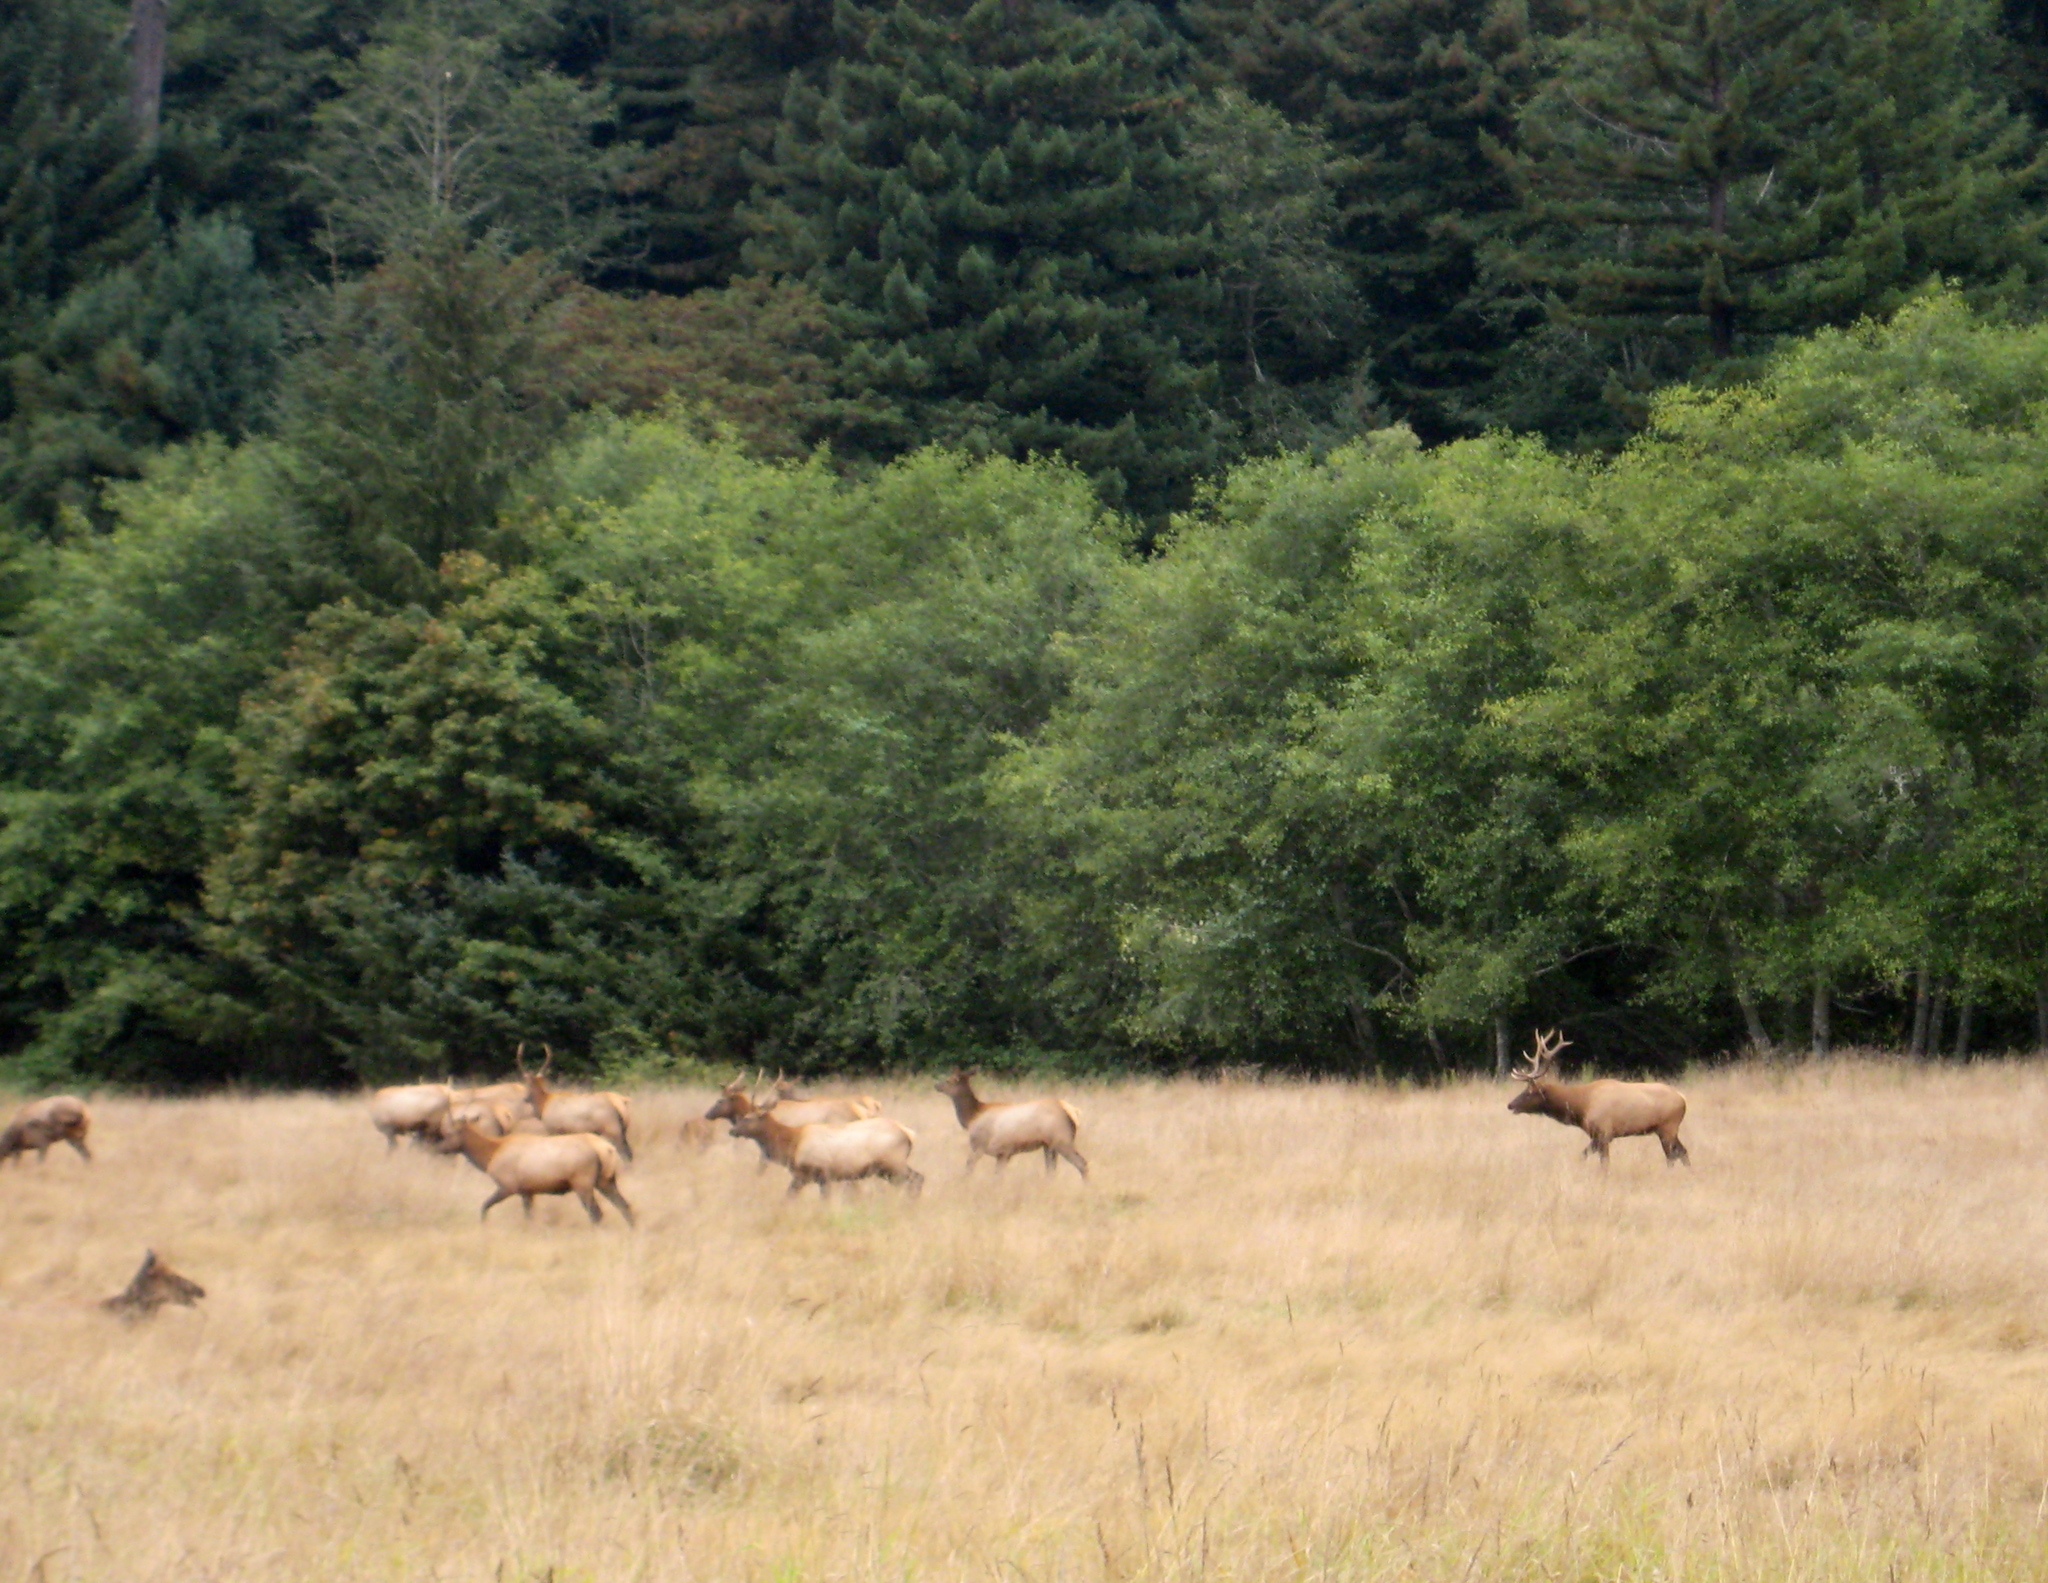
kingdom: Animalia
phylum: Chordata
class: Mammalia
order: Artiodactyla
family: Cervidae
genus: Cervus
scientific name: Cervus elaphus
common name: Red deer
